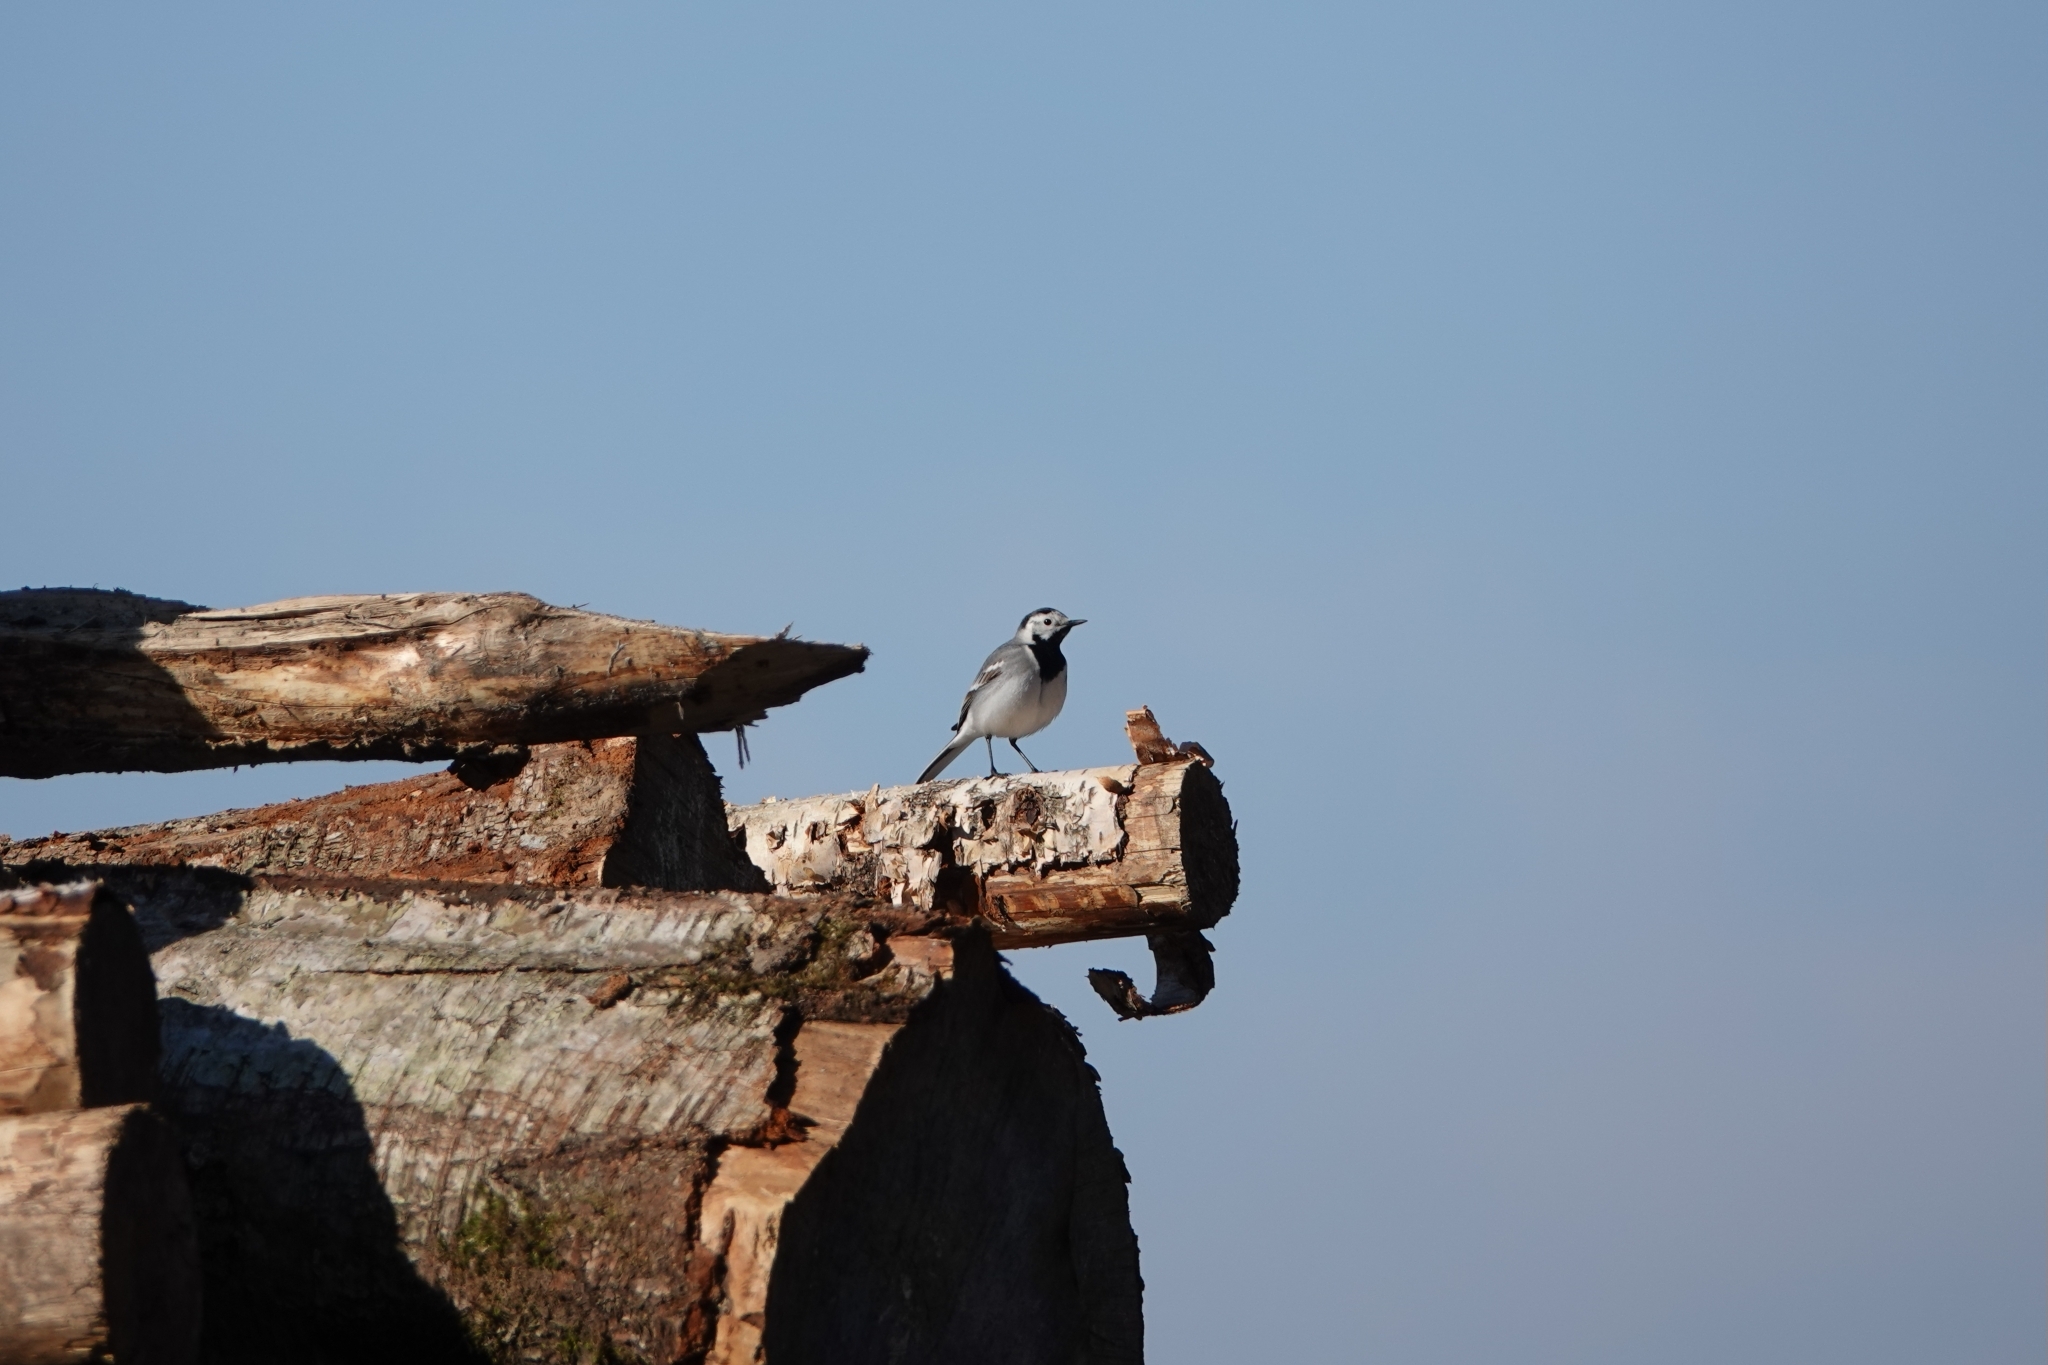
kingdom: Animalia
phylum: Chordata
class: Aves
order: Passeriformes
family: Motacillidae
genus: Motacilla
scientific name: Motacilla alba
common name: White wagtail
